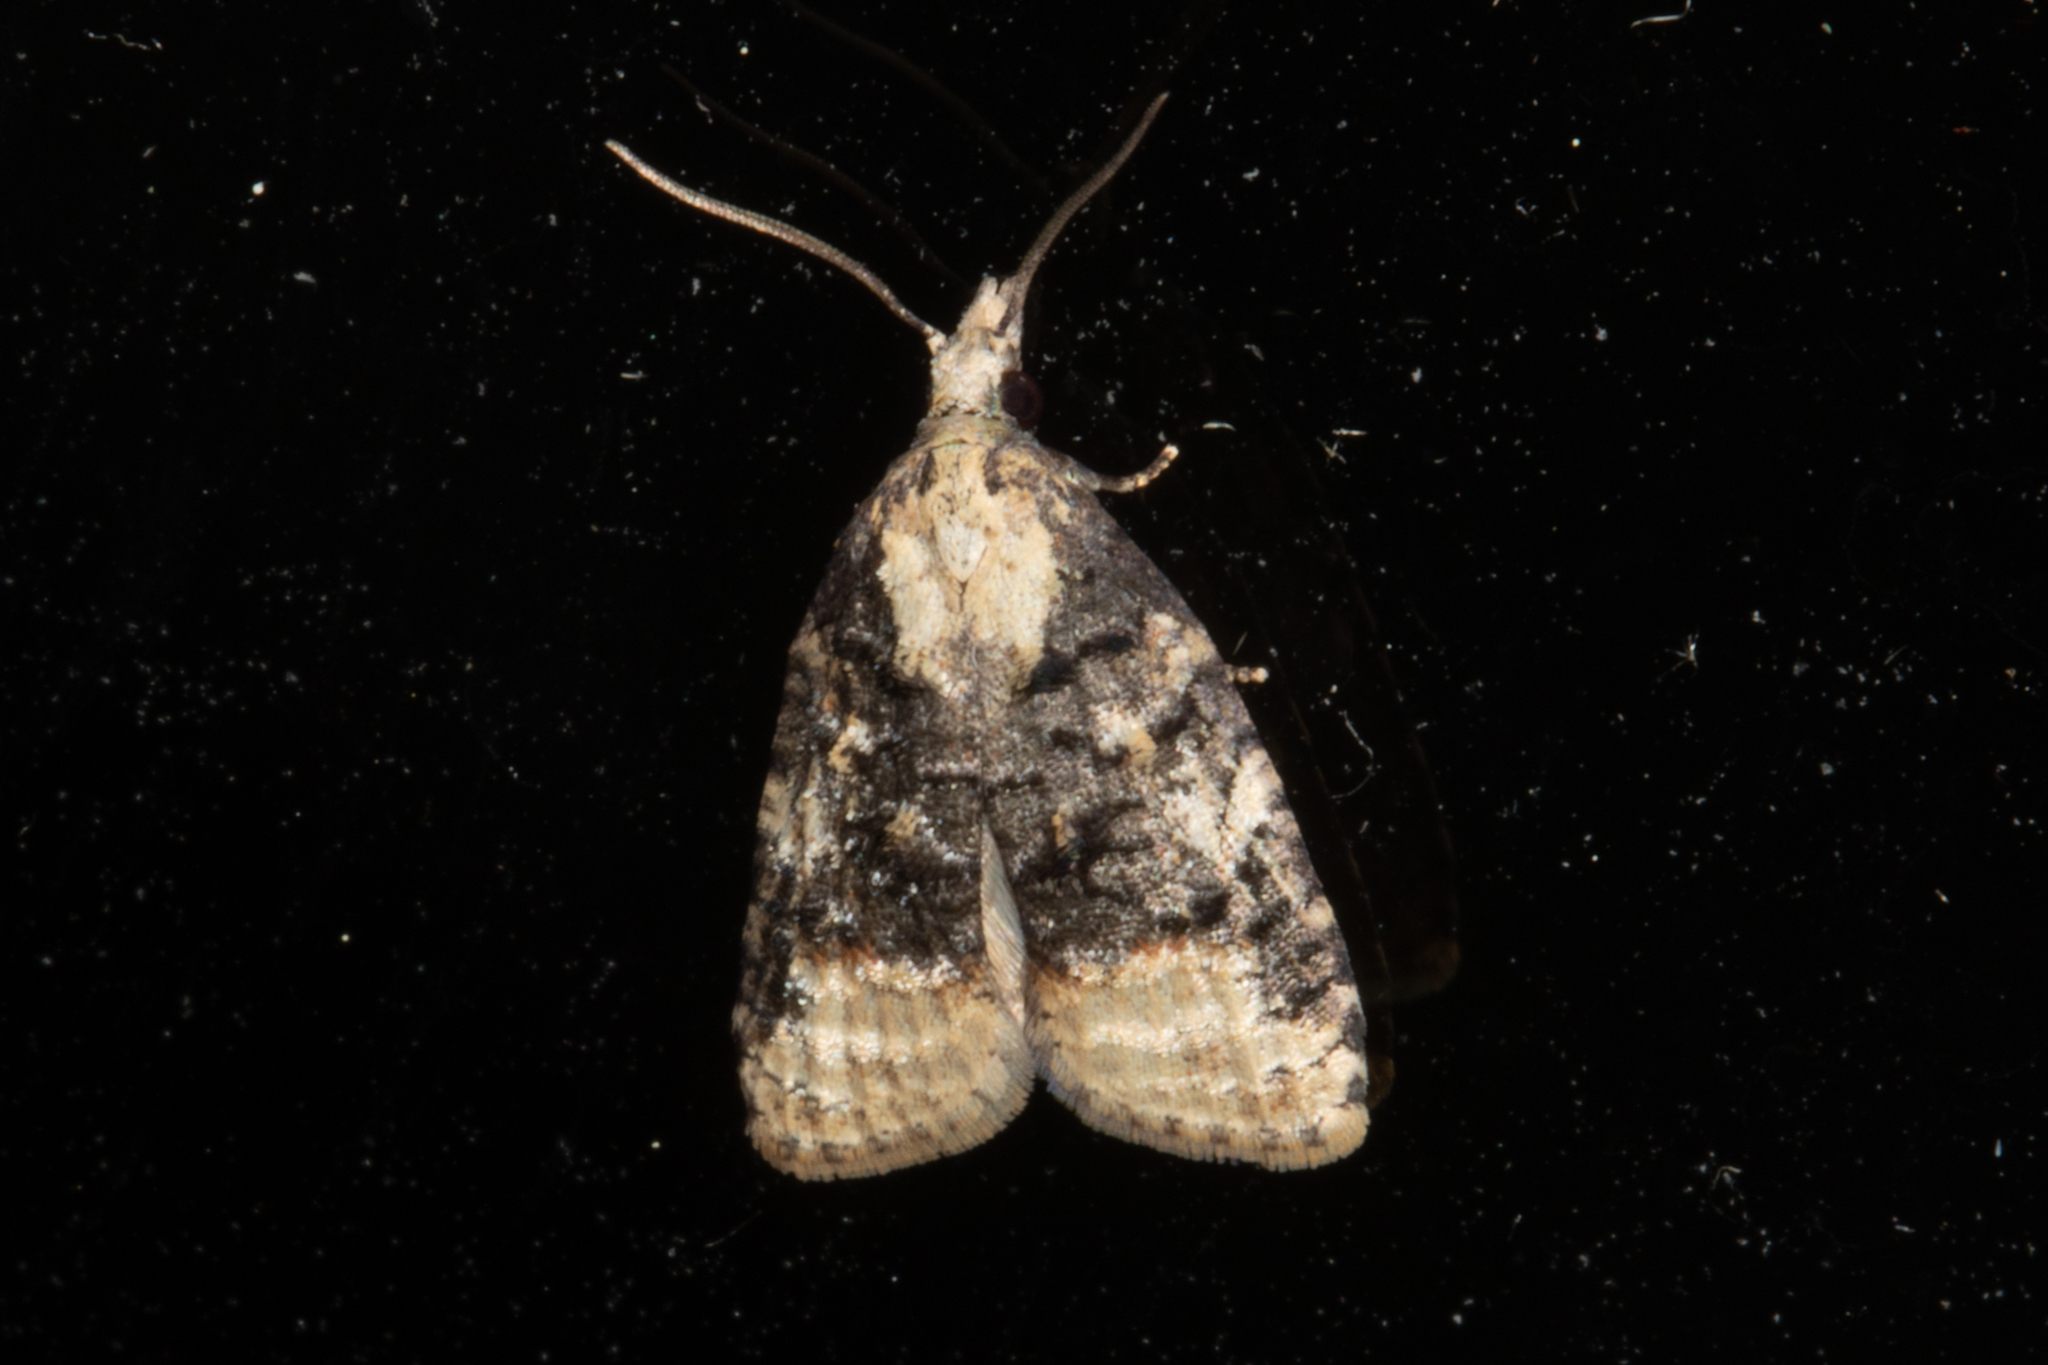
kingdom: Animalia
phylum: Arthropoda
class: Insecta
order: Lepidoptera
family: Tortricidae
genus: Platynota
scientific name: Platynota flavedana
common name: Black-shaded platynota moth
